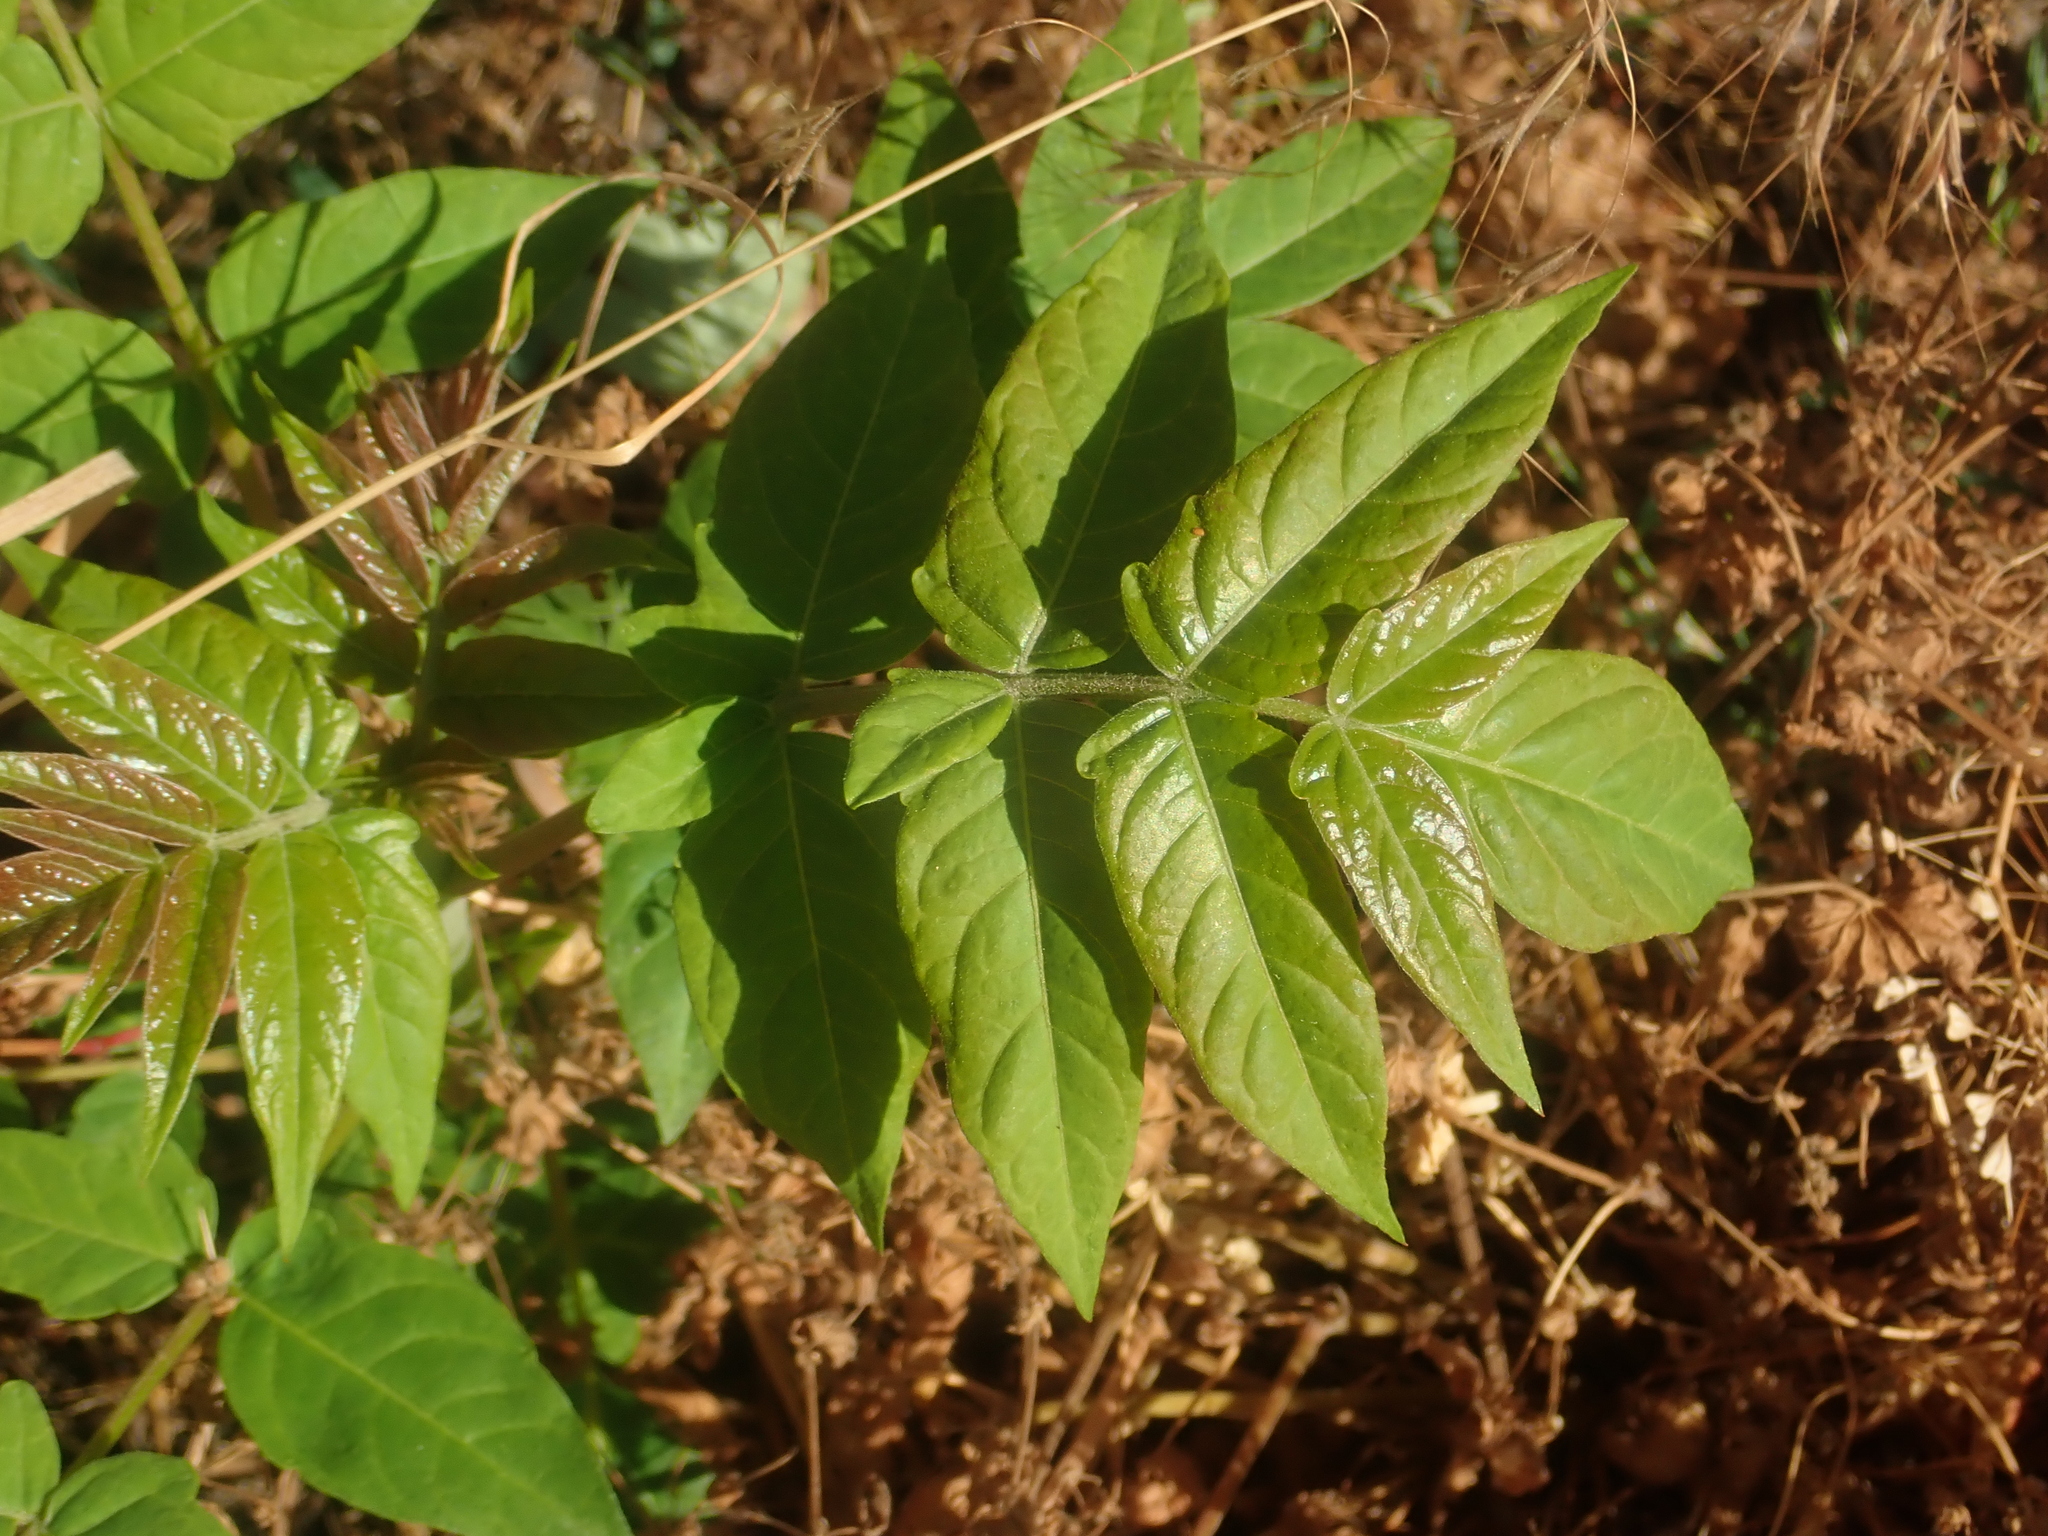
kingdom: Plantae
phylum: Tracheophyta
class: Magnoliopsida
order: Sapindales
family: Simaroubaceae
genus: Ailanthus
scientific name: Ailanthus altissima
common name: Tree-of-heaven
